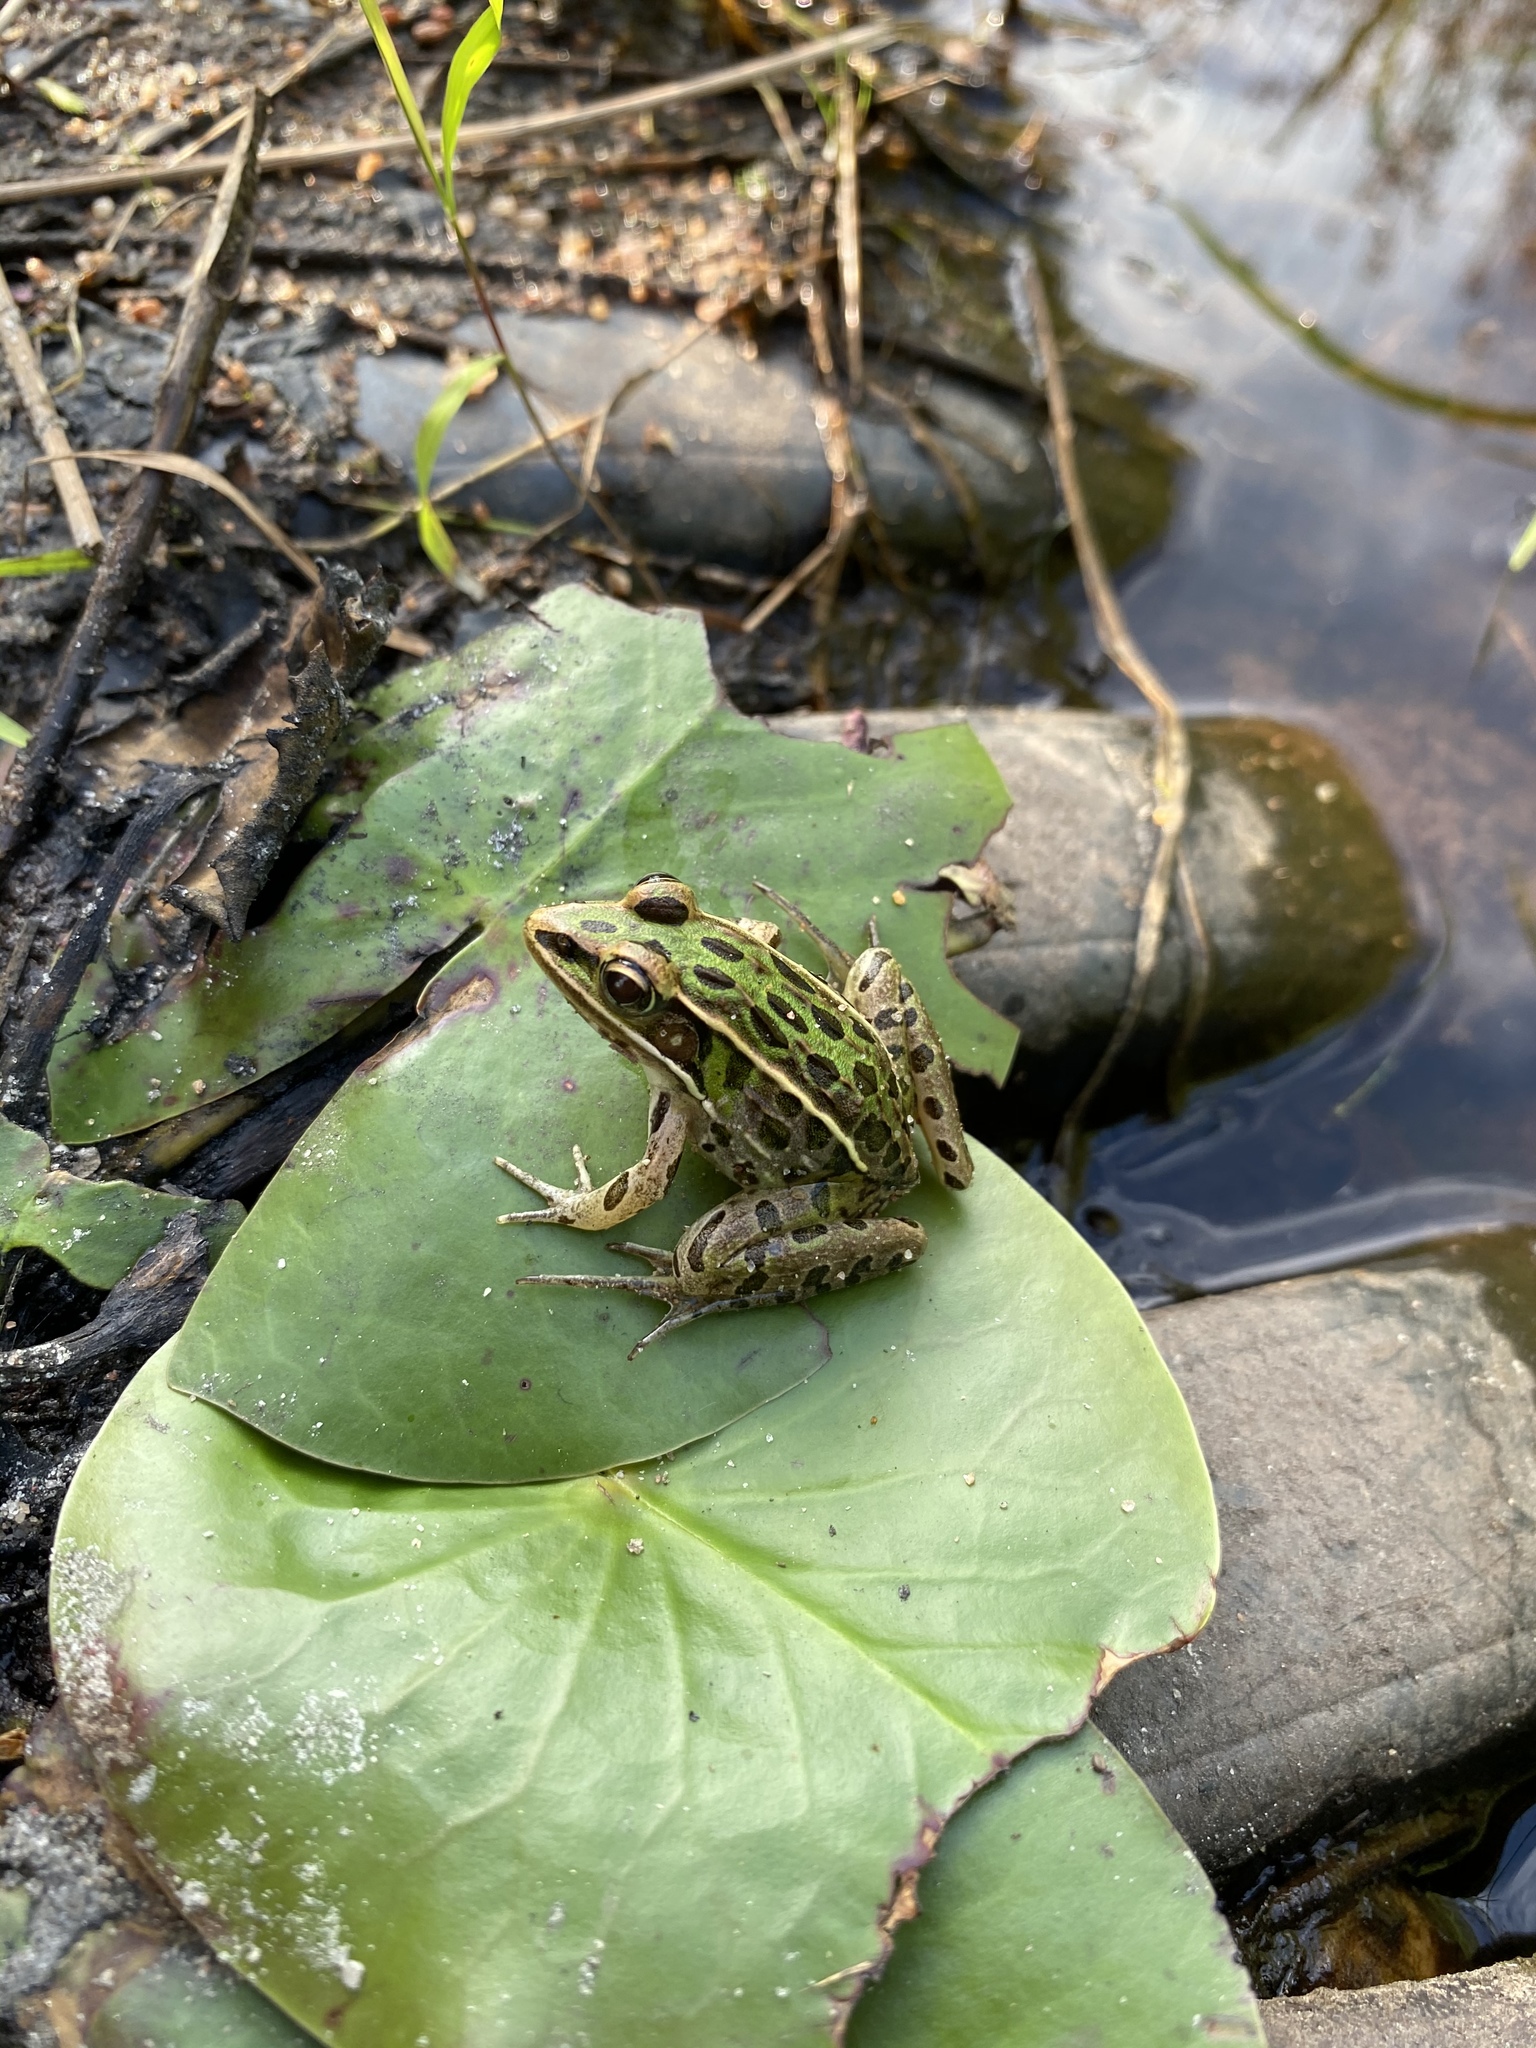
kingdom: Animalia
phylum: Chordata
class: Amphibia
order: Anura
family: Ranidae
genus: Lithobates
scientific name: Lithobates sphenocephalus
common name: Southern leopard frog
